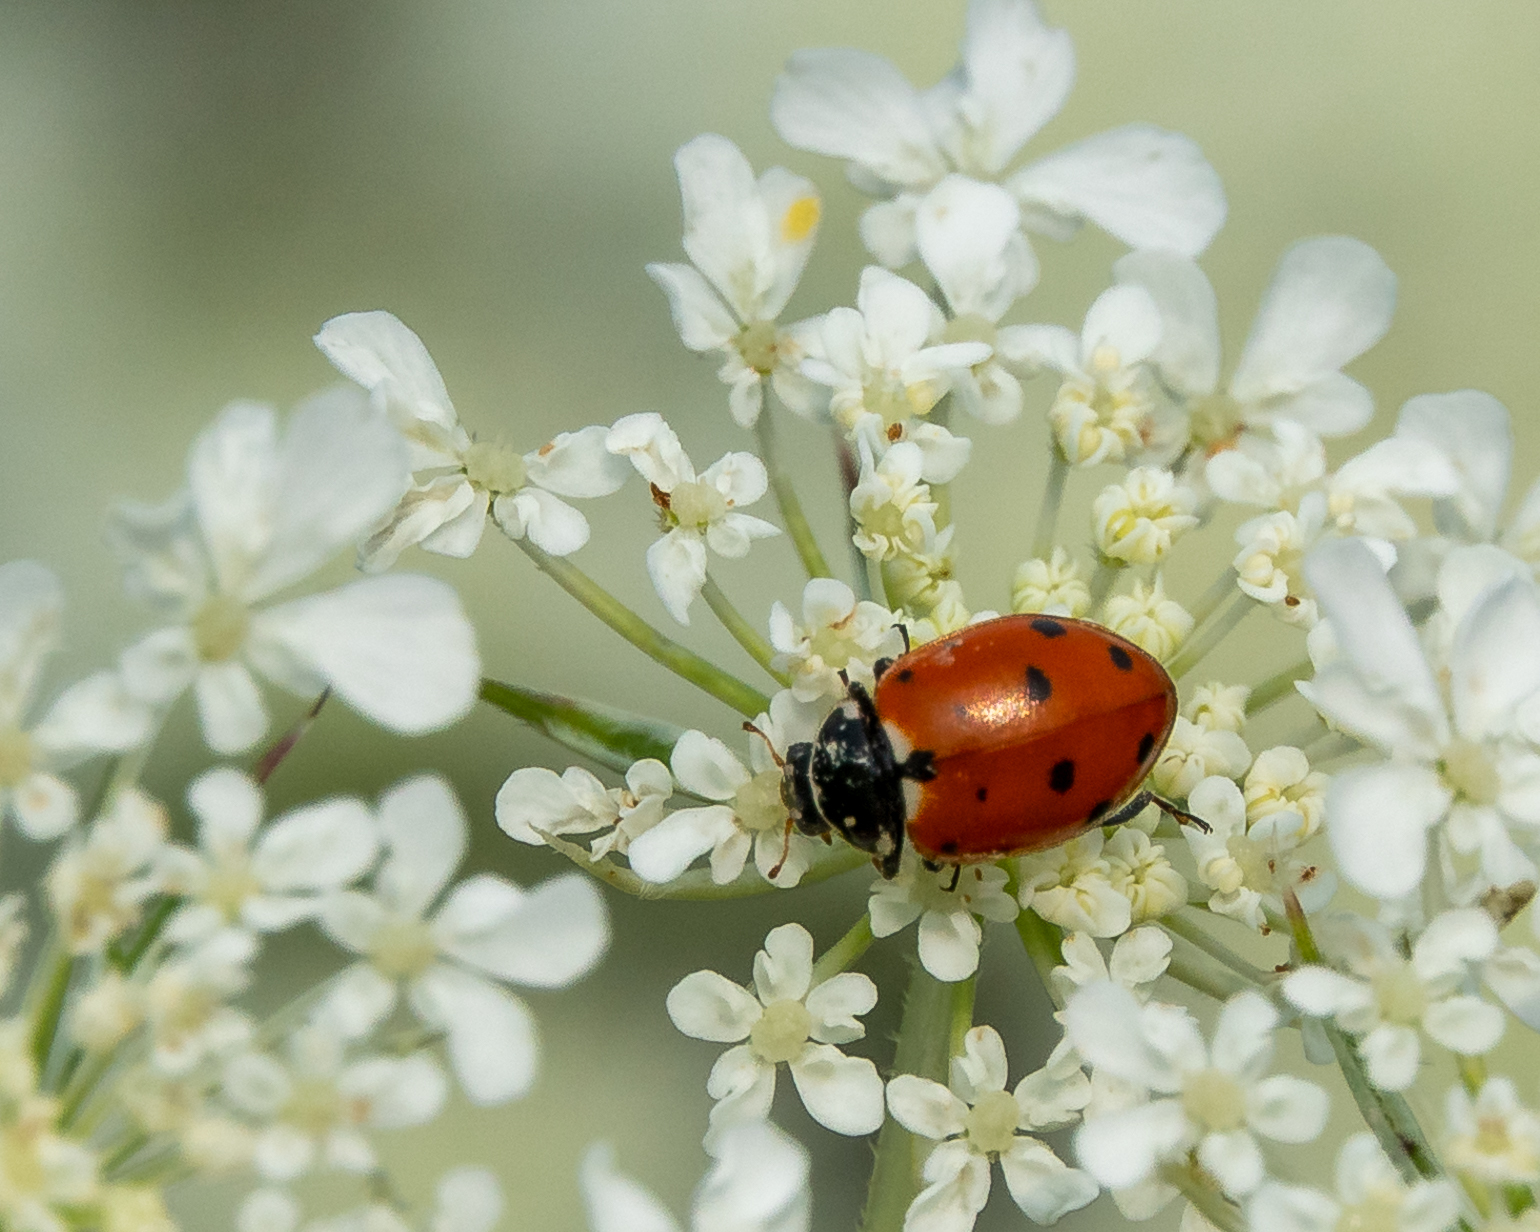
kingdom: Animalia
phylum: Arthropoda
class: Insecta
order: Coleoptera
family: Coccinellidae
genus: Hippodamia
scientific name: Hippodamia variegata
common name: Ladybird beetle
